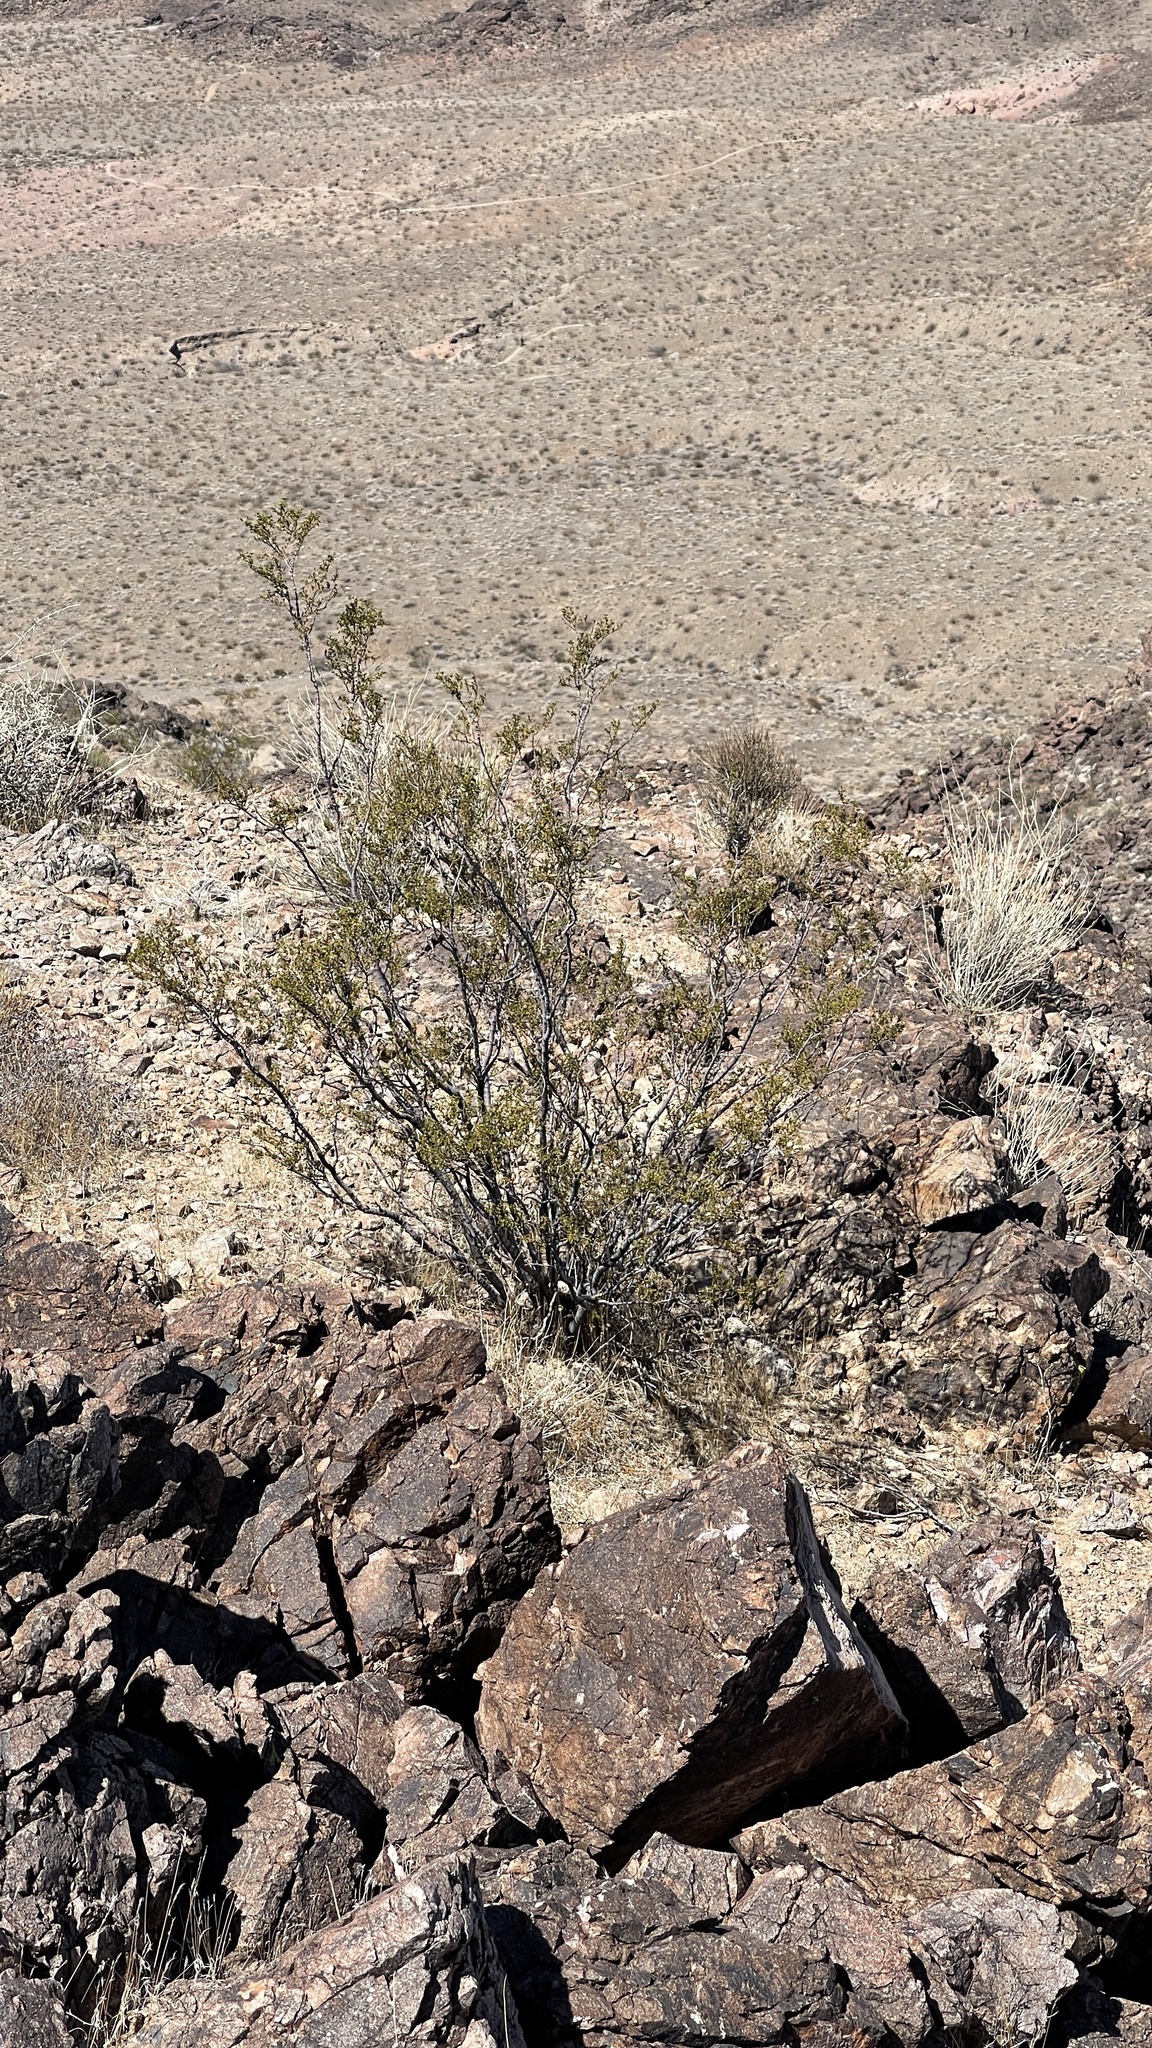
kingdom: Plantae
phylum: Tracheophyta
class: Magnoliopsida
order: Zygophyllales
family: Zygophyllaceae
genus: Larrea
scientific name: Larrea tridentata
